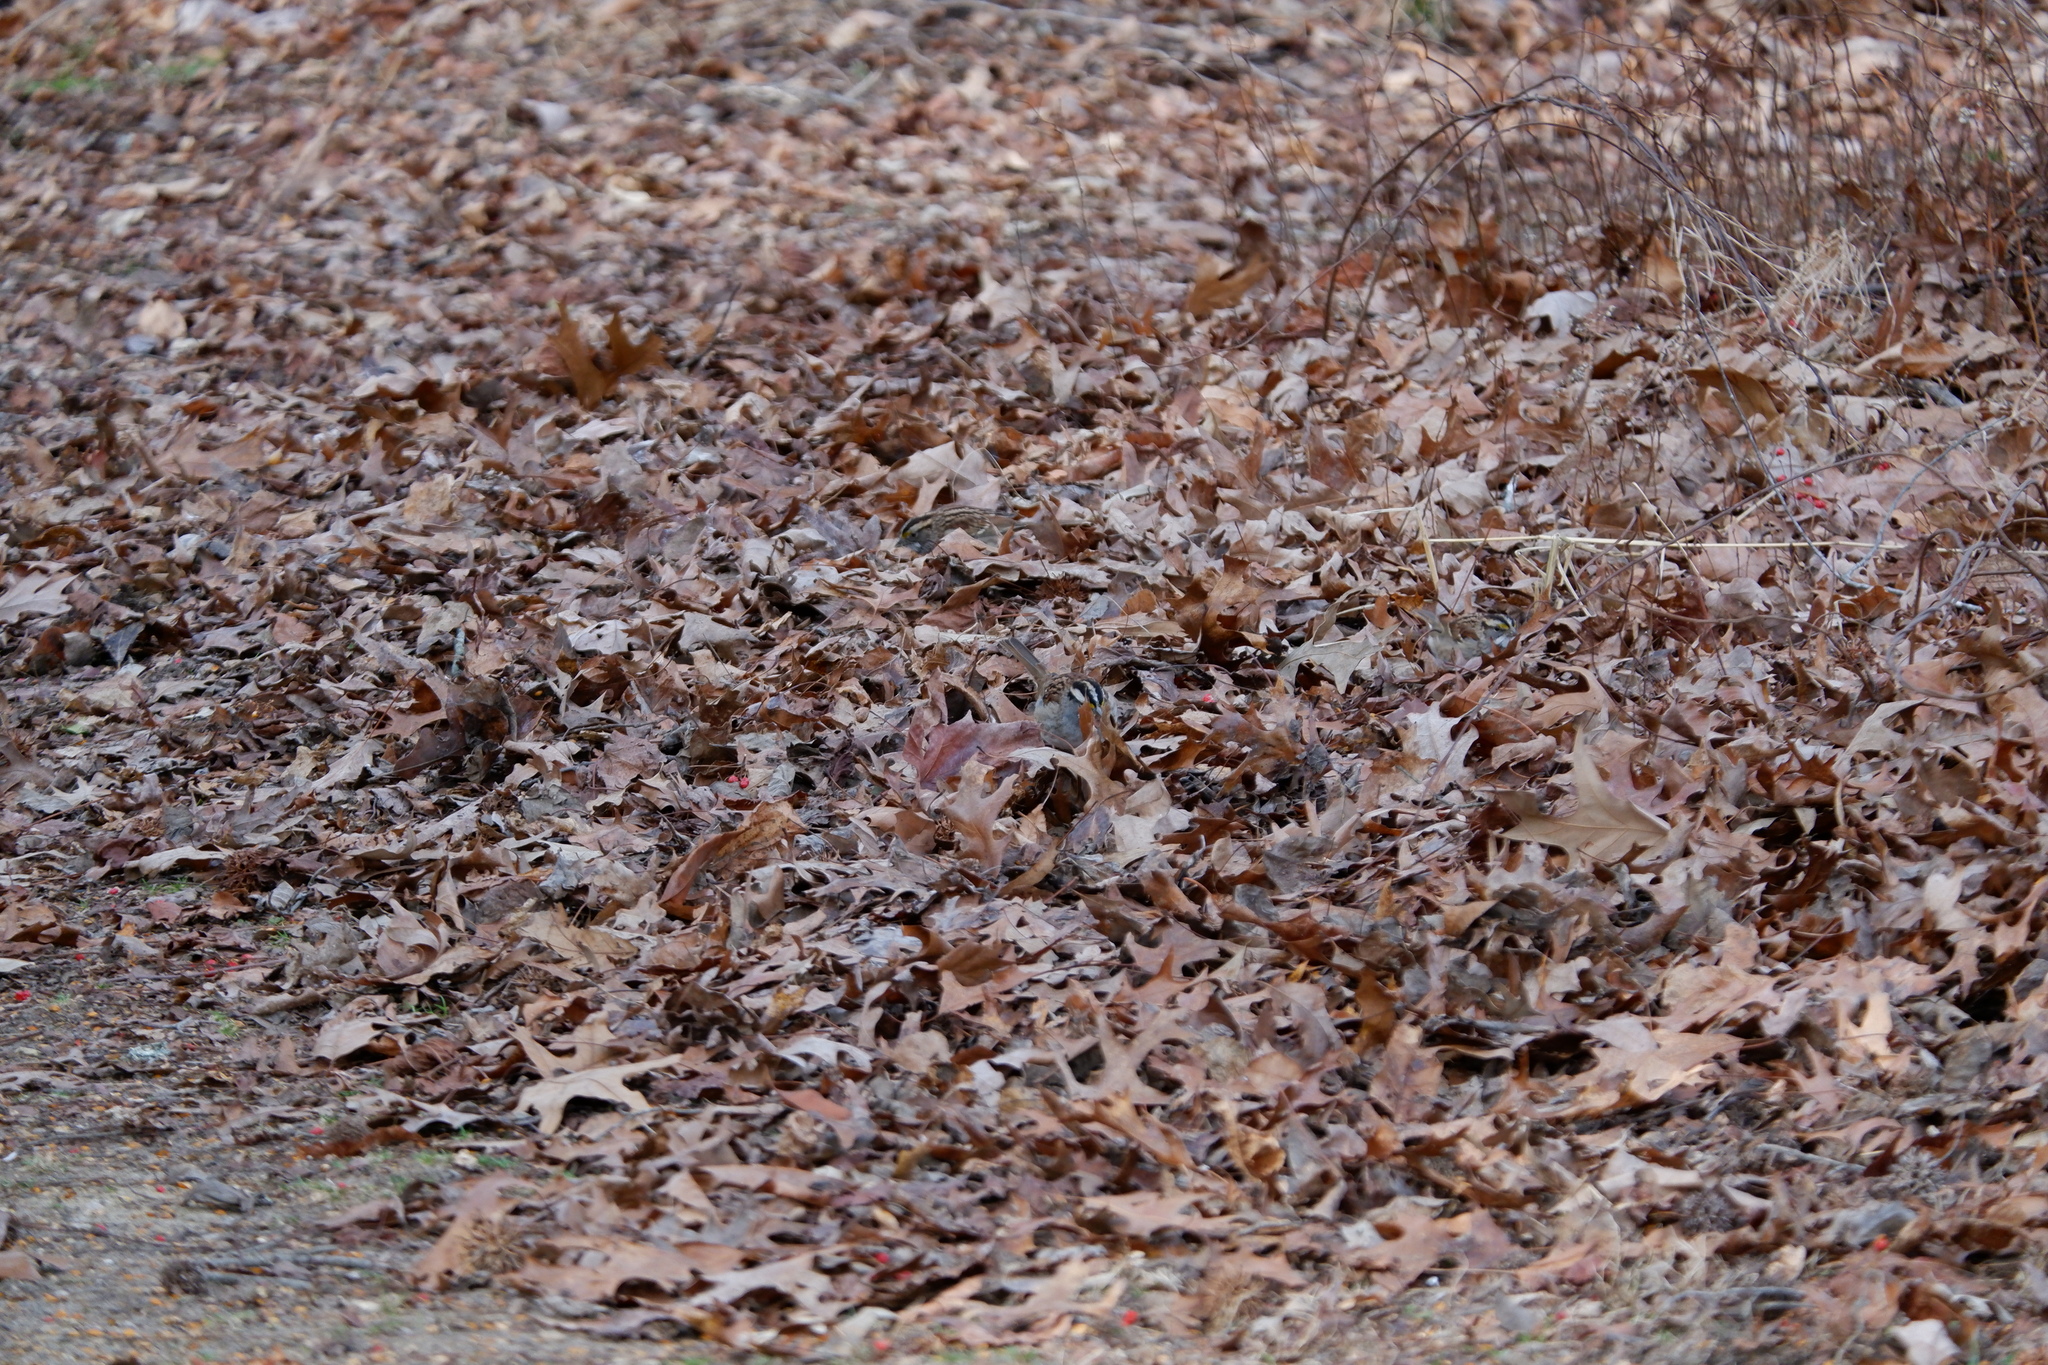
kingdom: Animalia
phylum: Chordata
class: Aves
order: Passeriformes
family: Passerellidae
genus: Zonotrichia
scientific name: Zonotrichia albicollis
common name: White-throated sparrow
